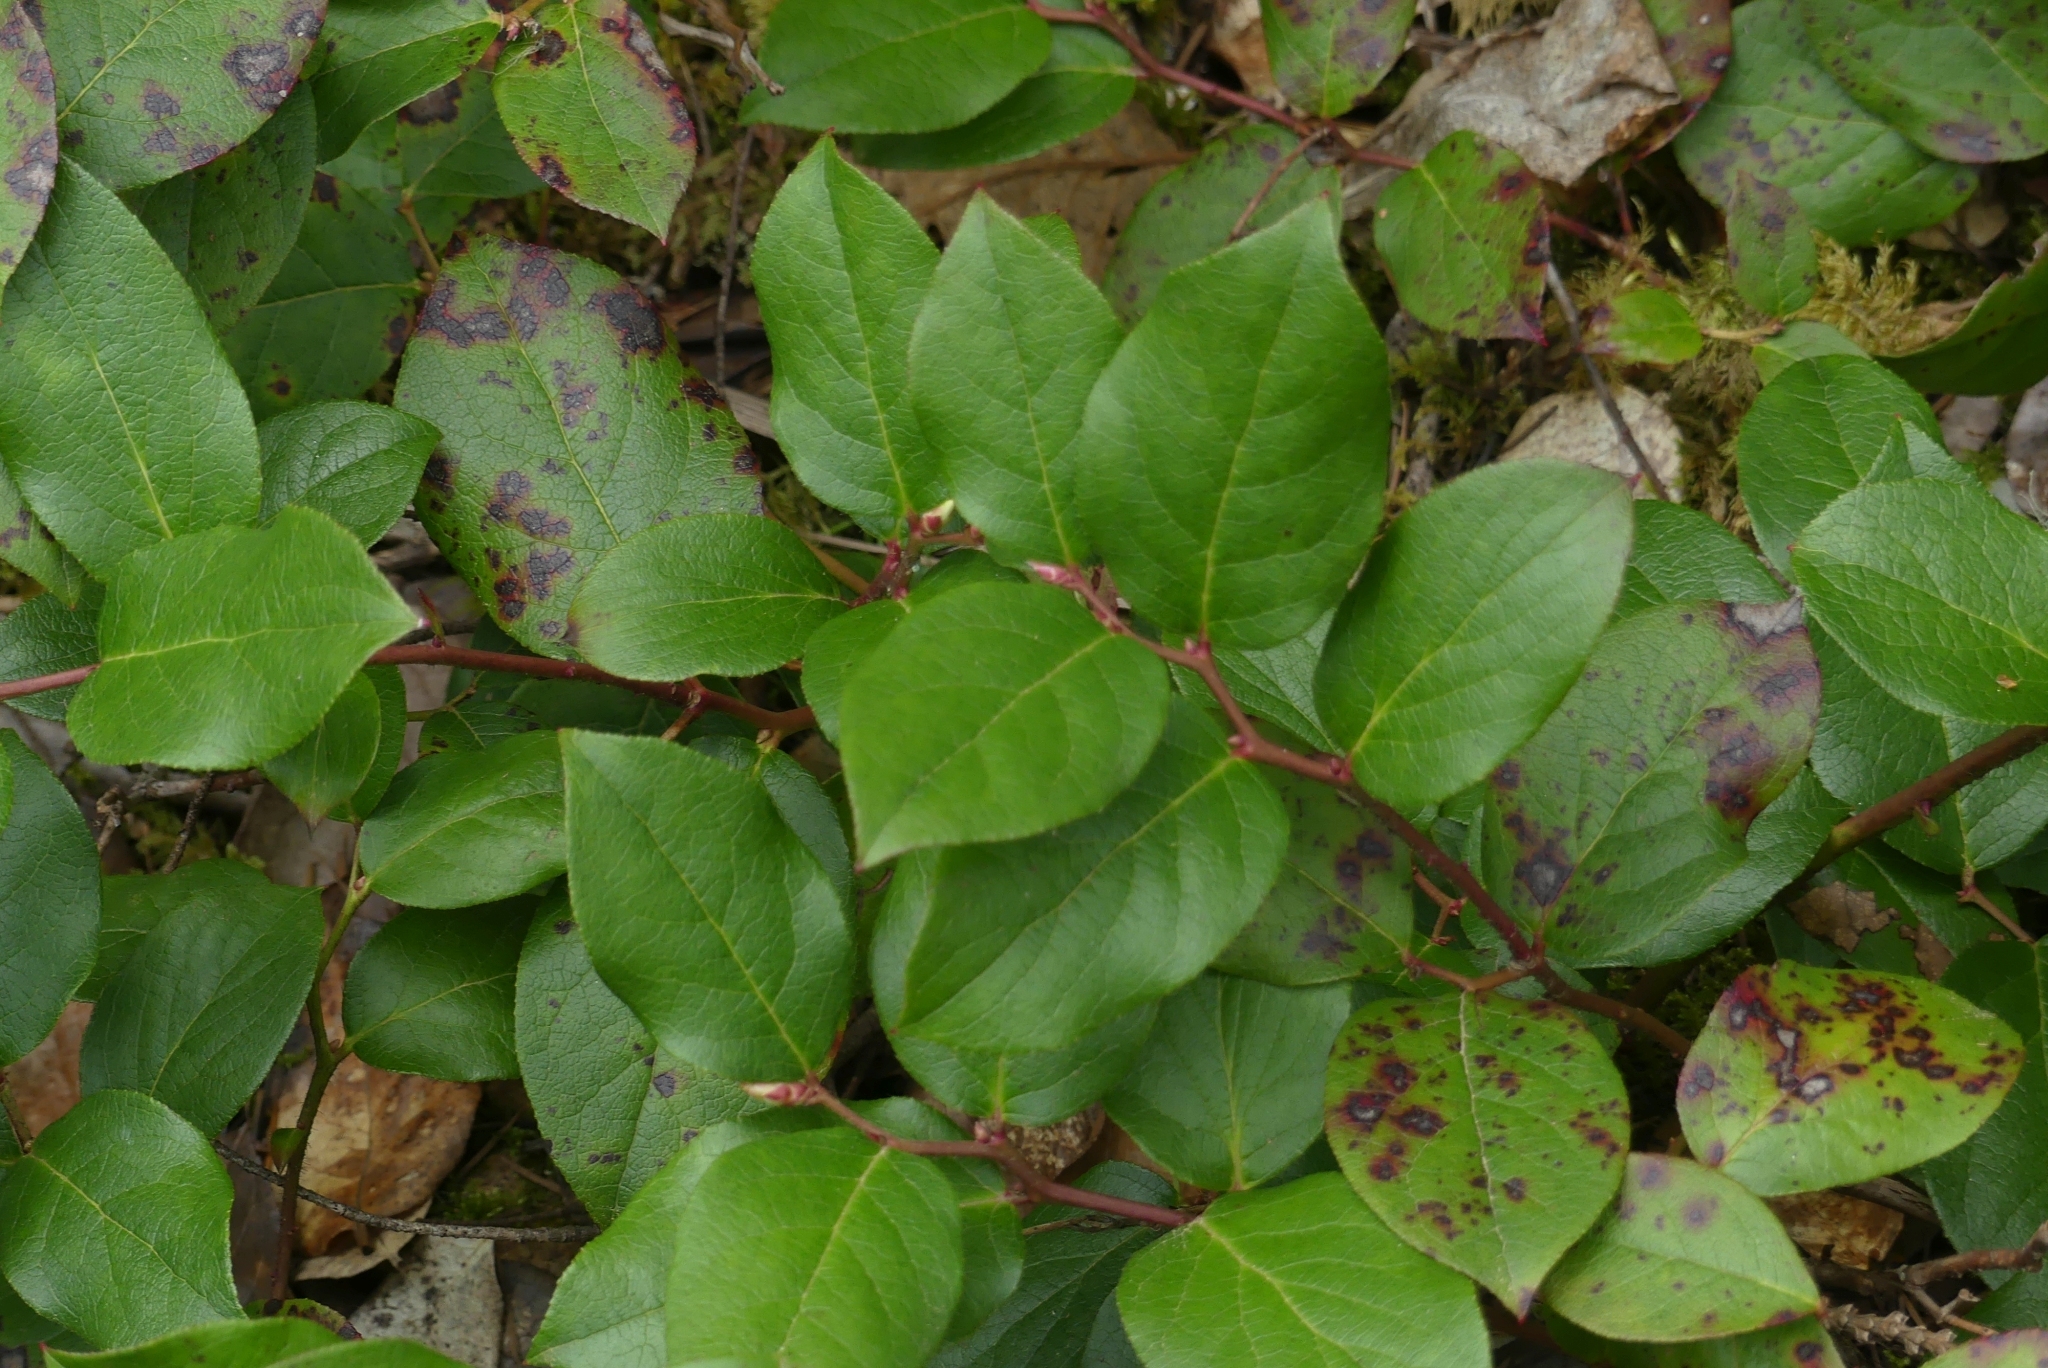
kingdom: Plantae
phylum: Tracheophyta
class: Magnoliopsida
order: Ericales
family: Ericaceae
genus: Gaultheria
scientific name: Gaultheria shallon
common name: Shallon
